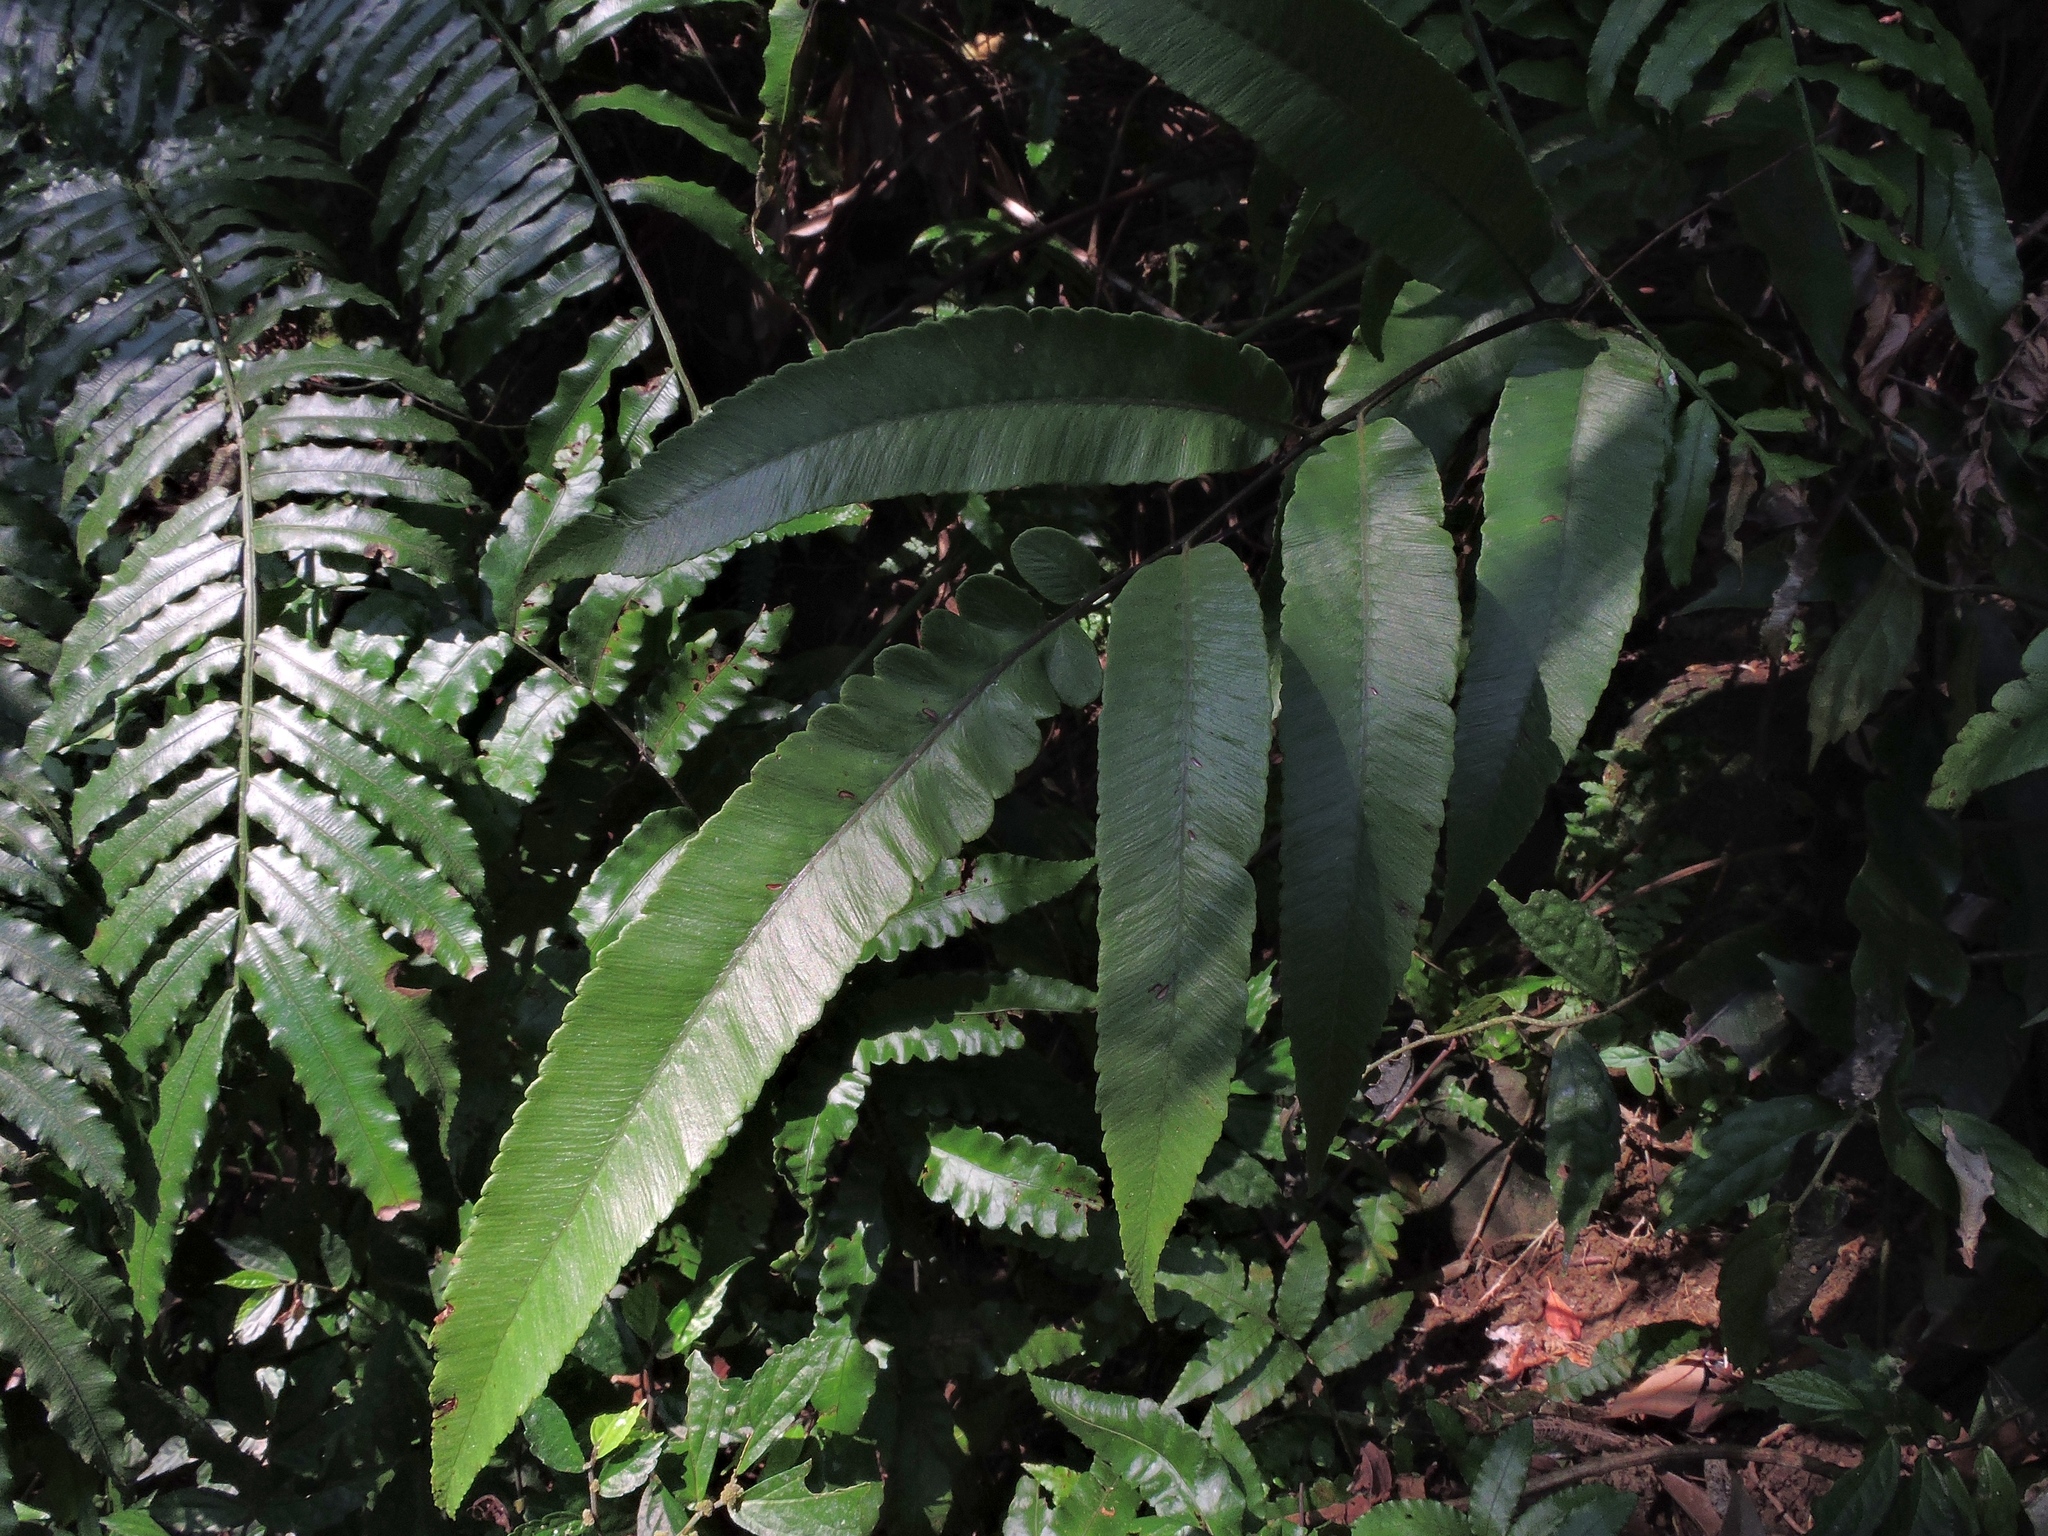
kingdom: Plantae
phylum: Tracheophyta
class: Polypodiopsida
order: Polypodiales
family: Athyriaceae
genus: Diplazium
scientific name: Diplazium lobatum
